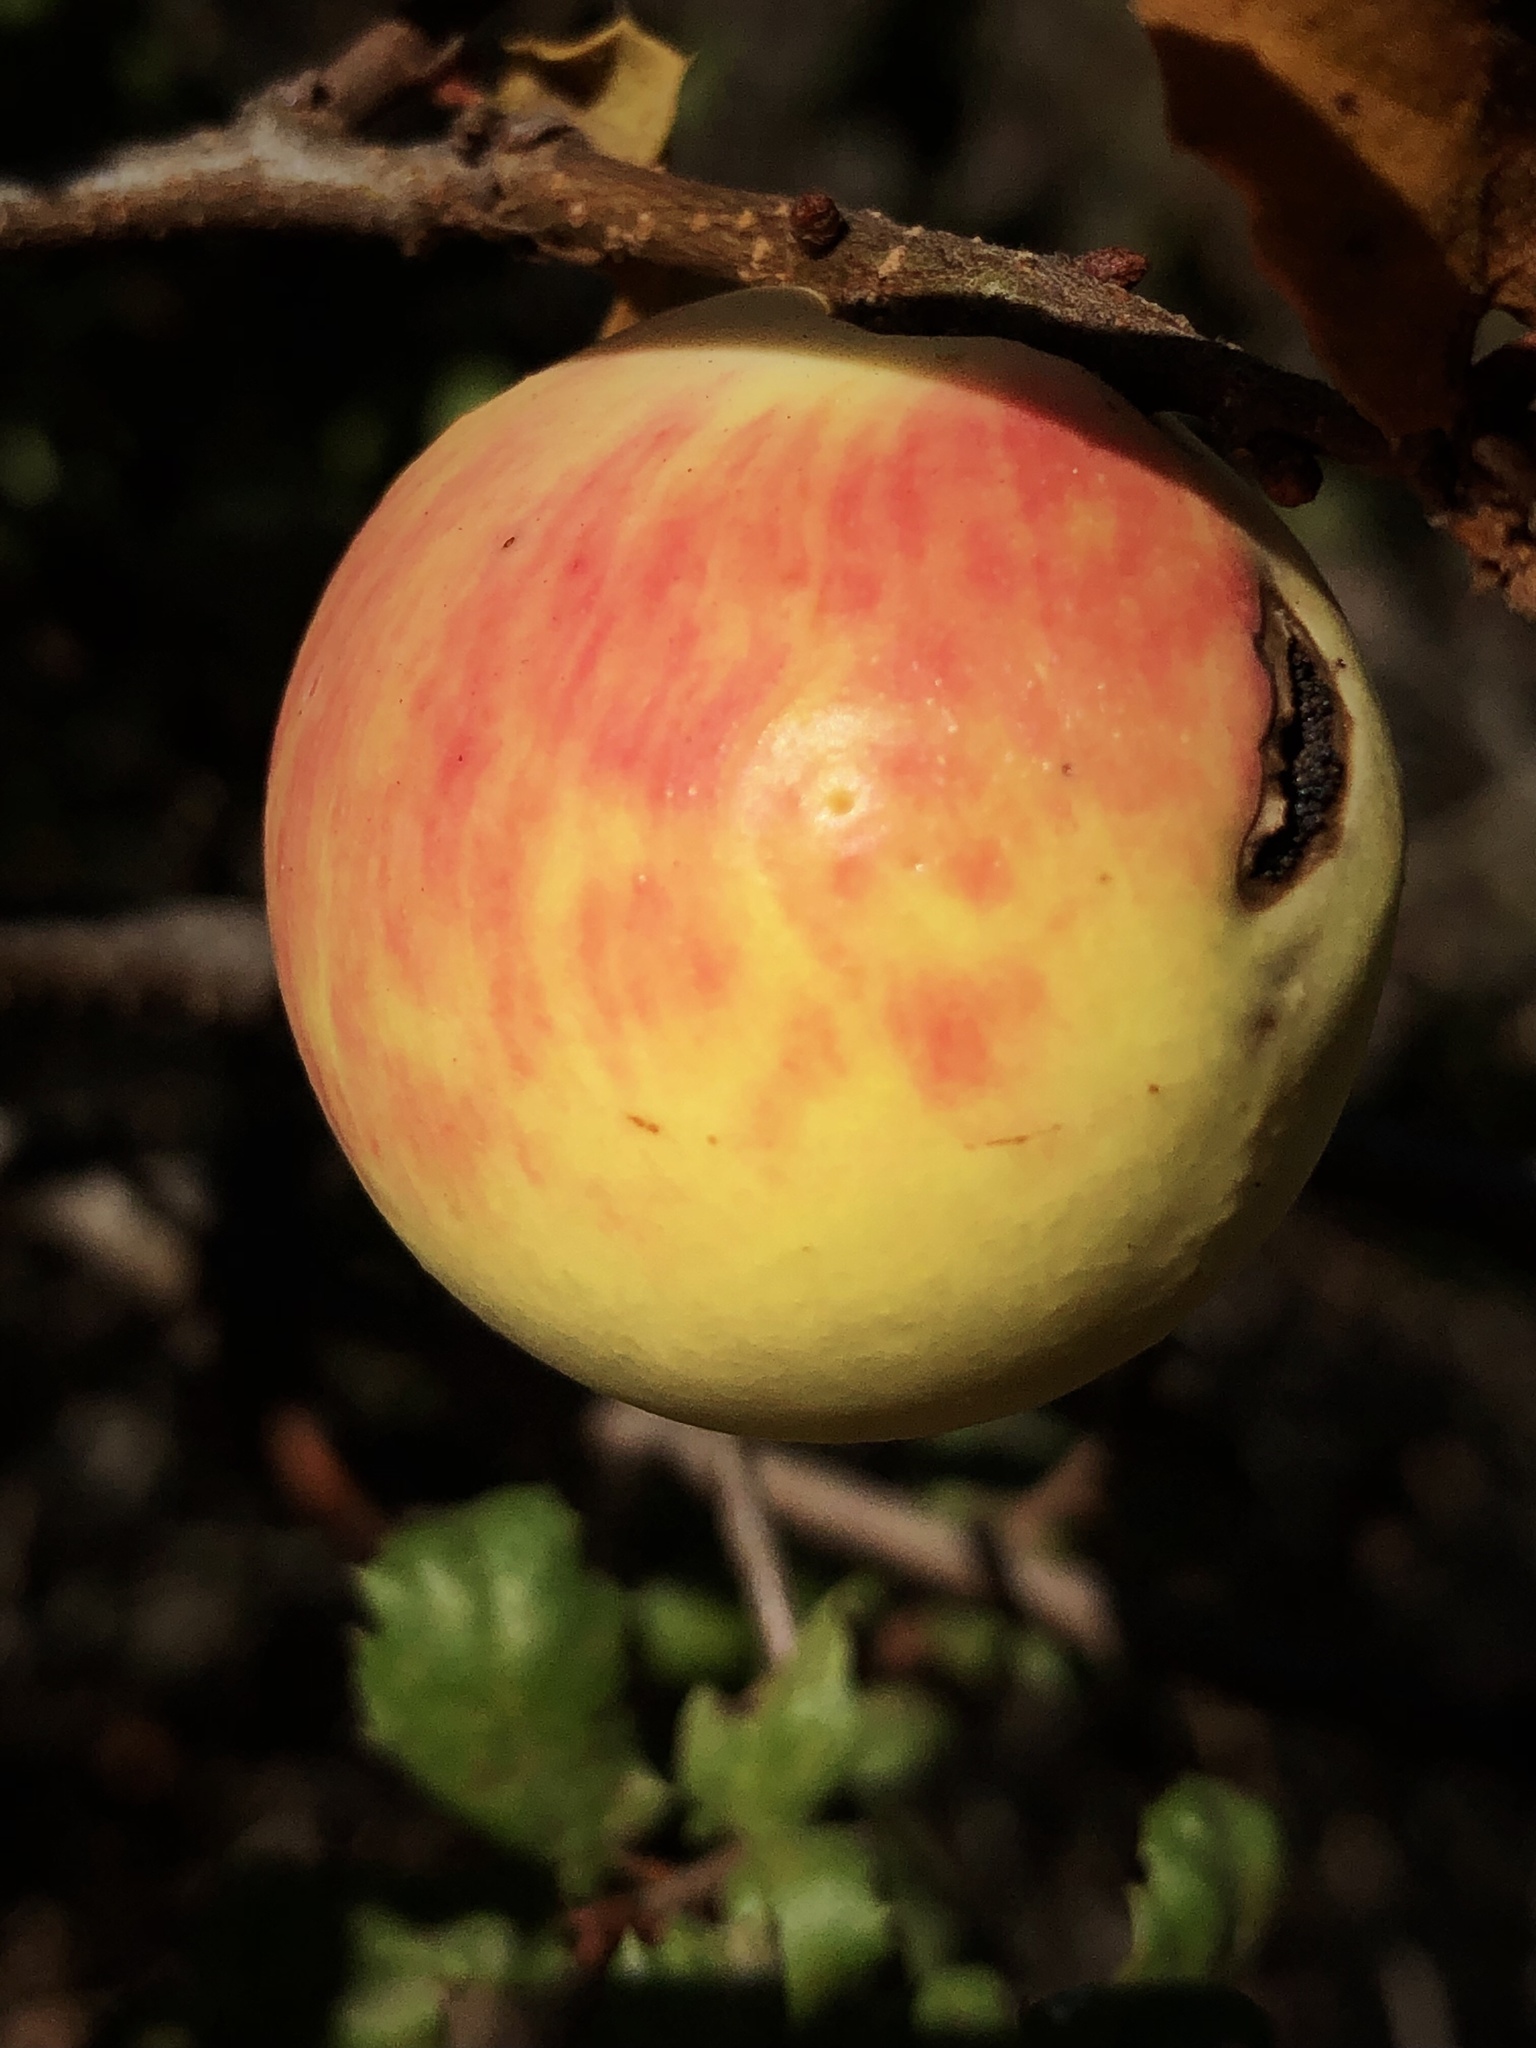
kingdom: Animalia
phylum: Arthropoda
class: Insecta
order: Hymenoptera
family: Cynipidae
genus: Andricus
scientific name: Andricus quercuscalifornicus
